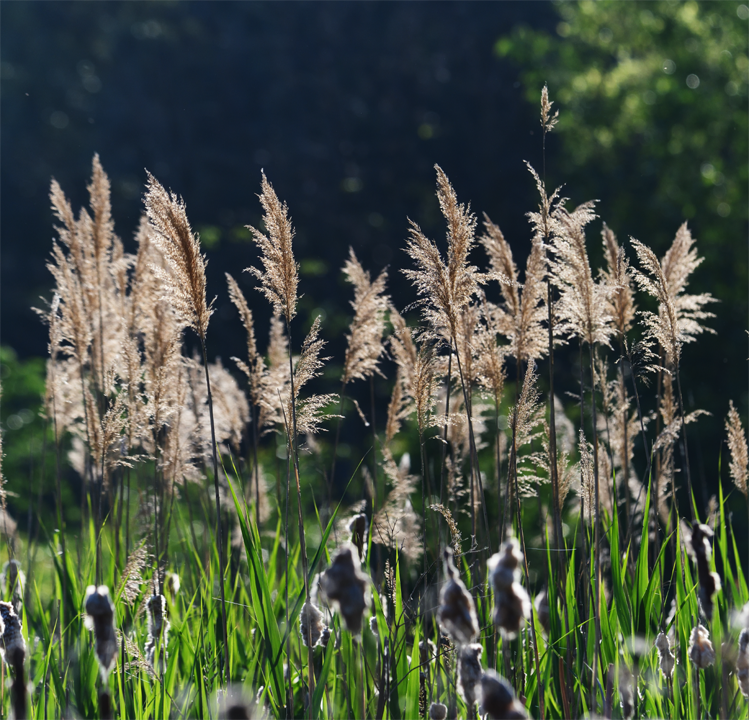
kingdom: Plantae
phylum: Tracheophyta
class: Liliopsida
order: Poales
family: Poaceae
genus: Phragmites
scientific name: Phragmites australis
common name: Common reed
